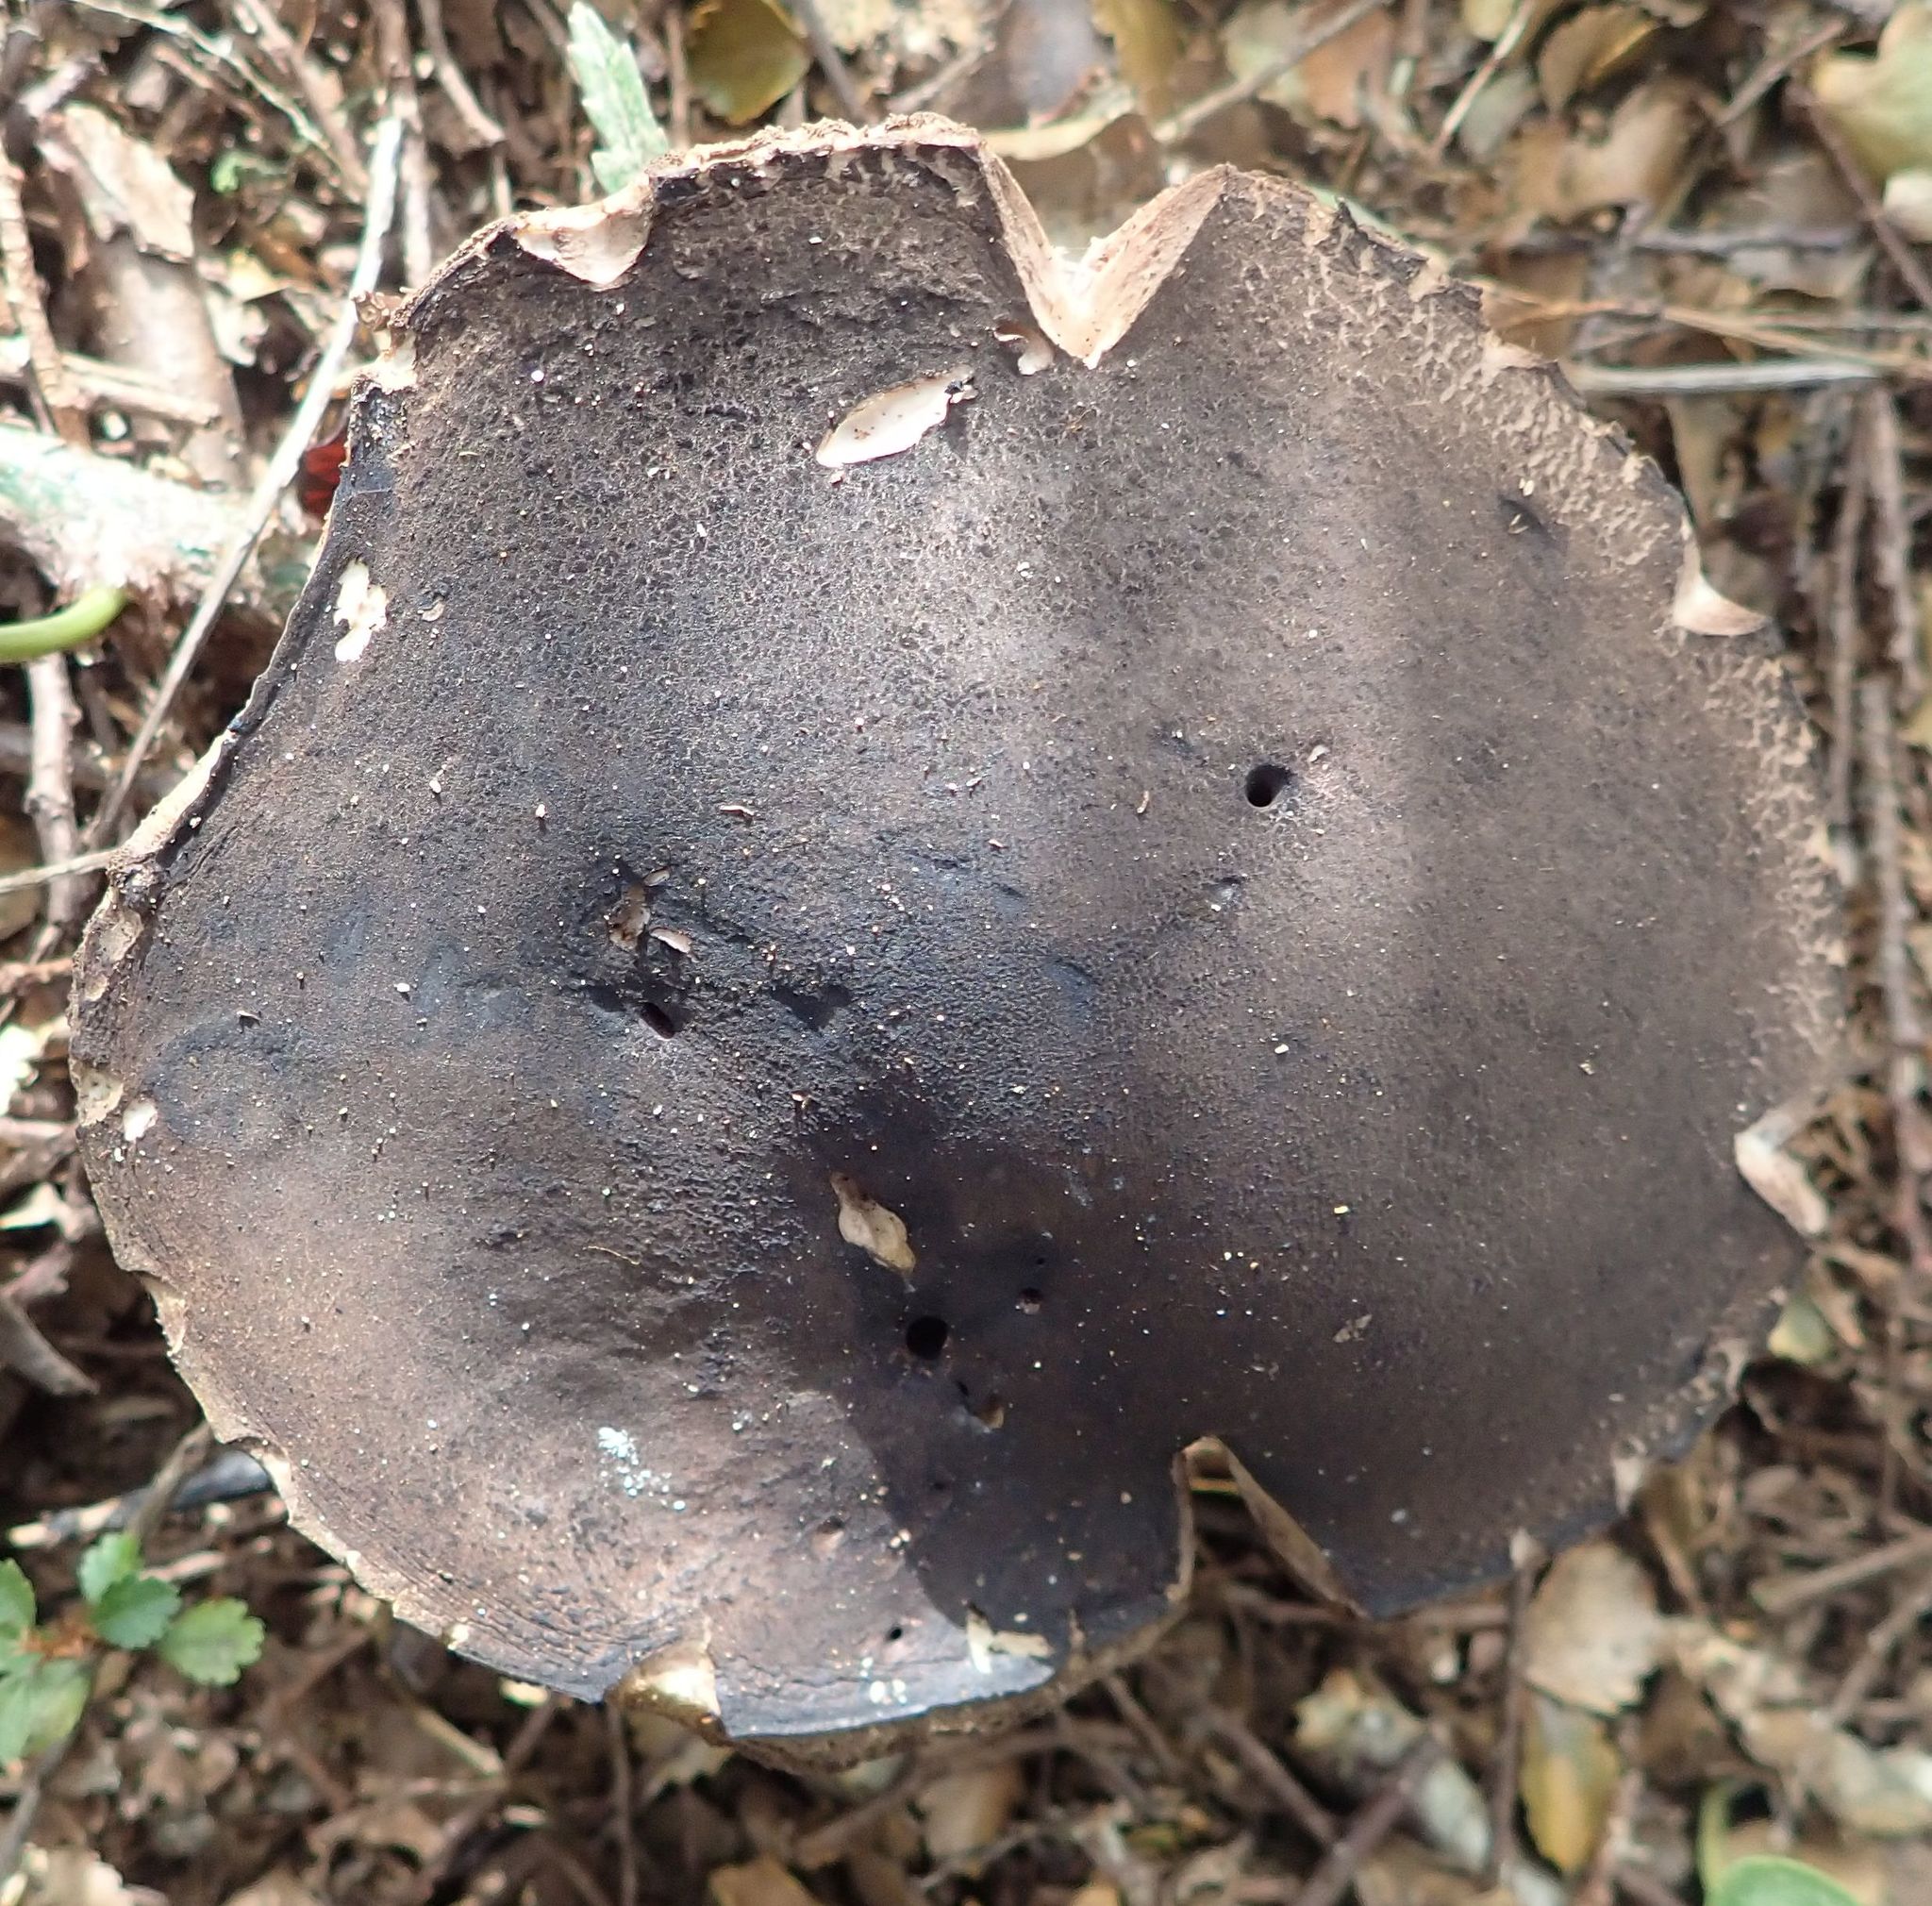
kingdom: Fungi
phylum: Basidiomycota
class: Agaricomycetes
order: Boletales
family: Boletaceae
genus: Porphyrellus
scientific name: Porphyrellus brunneus
